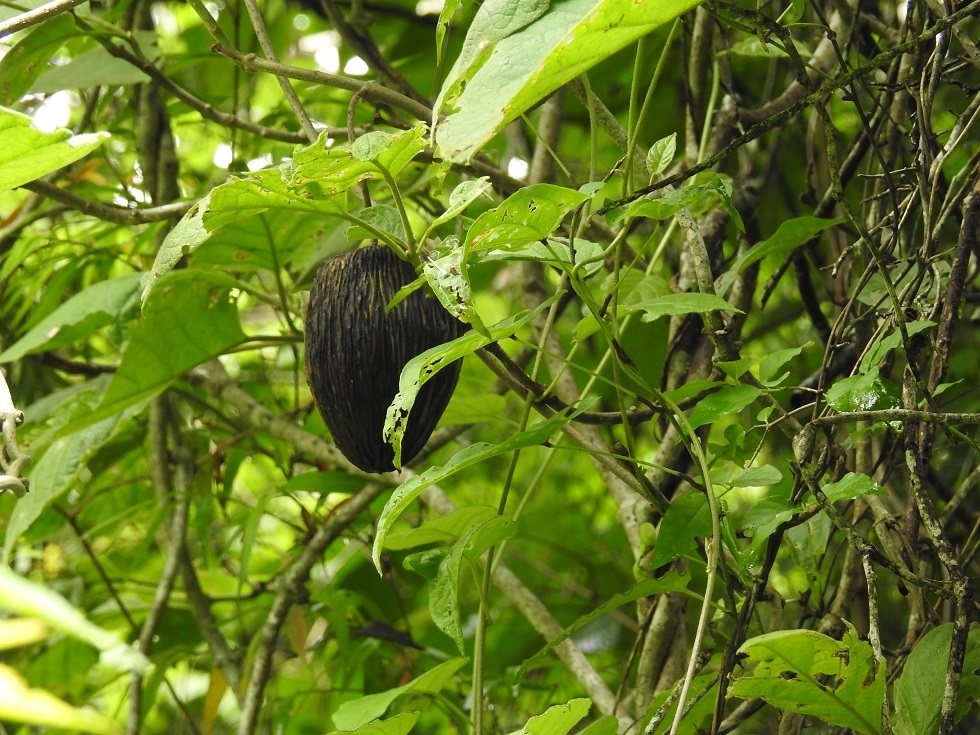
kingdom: Plantae
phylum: Tracheophyta
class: Magnoliopsida
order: Gentianales
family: Apocynaceae
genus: Ruehssia
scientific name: Ruehssia bourgaeana
